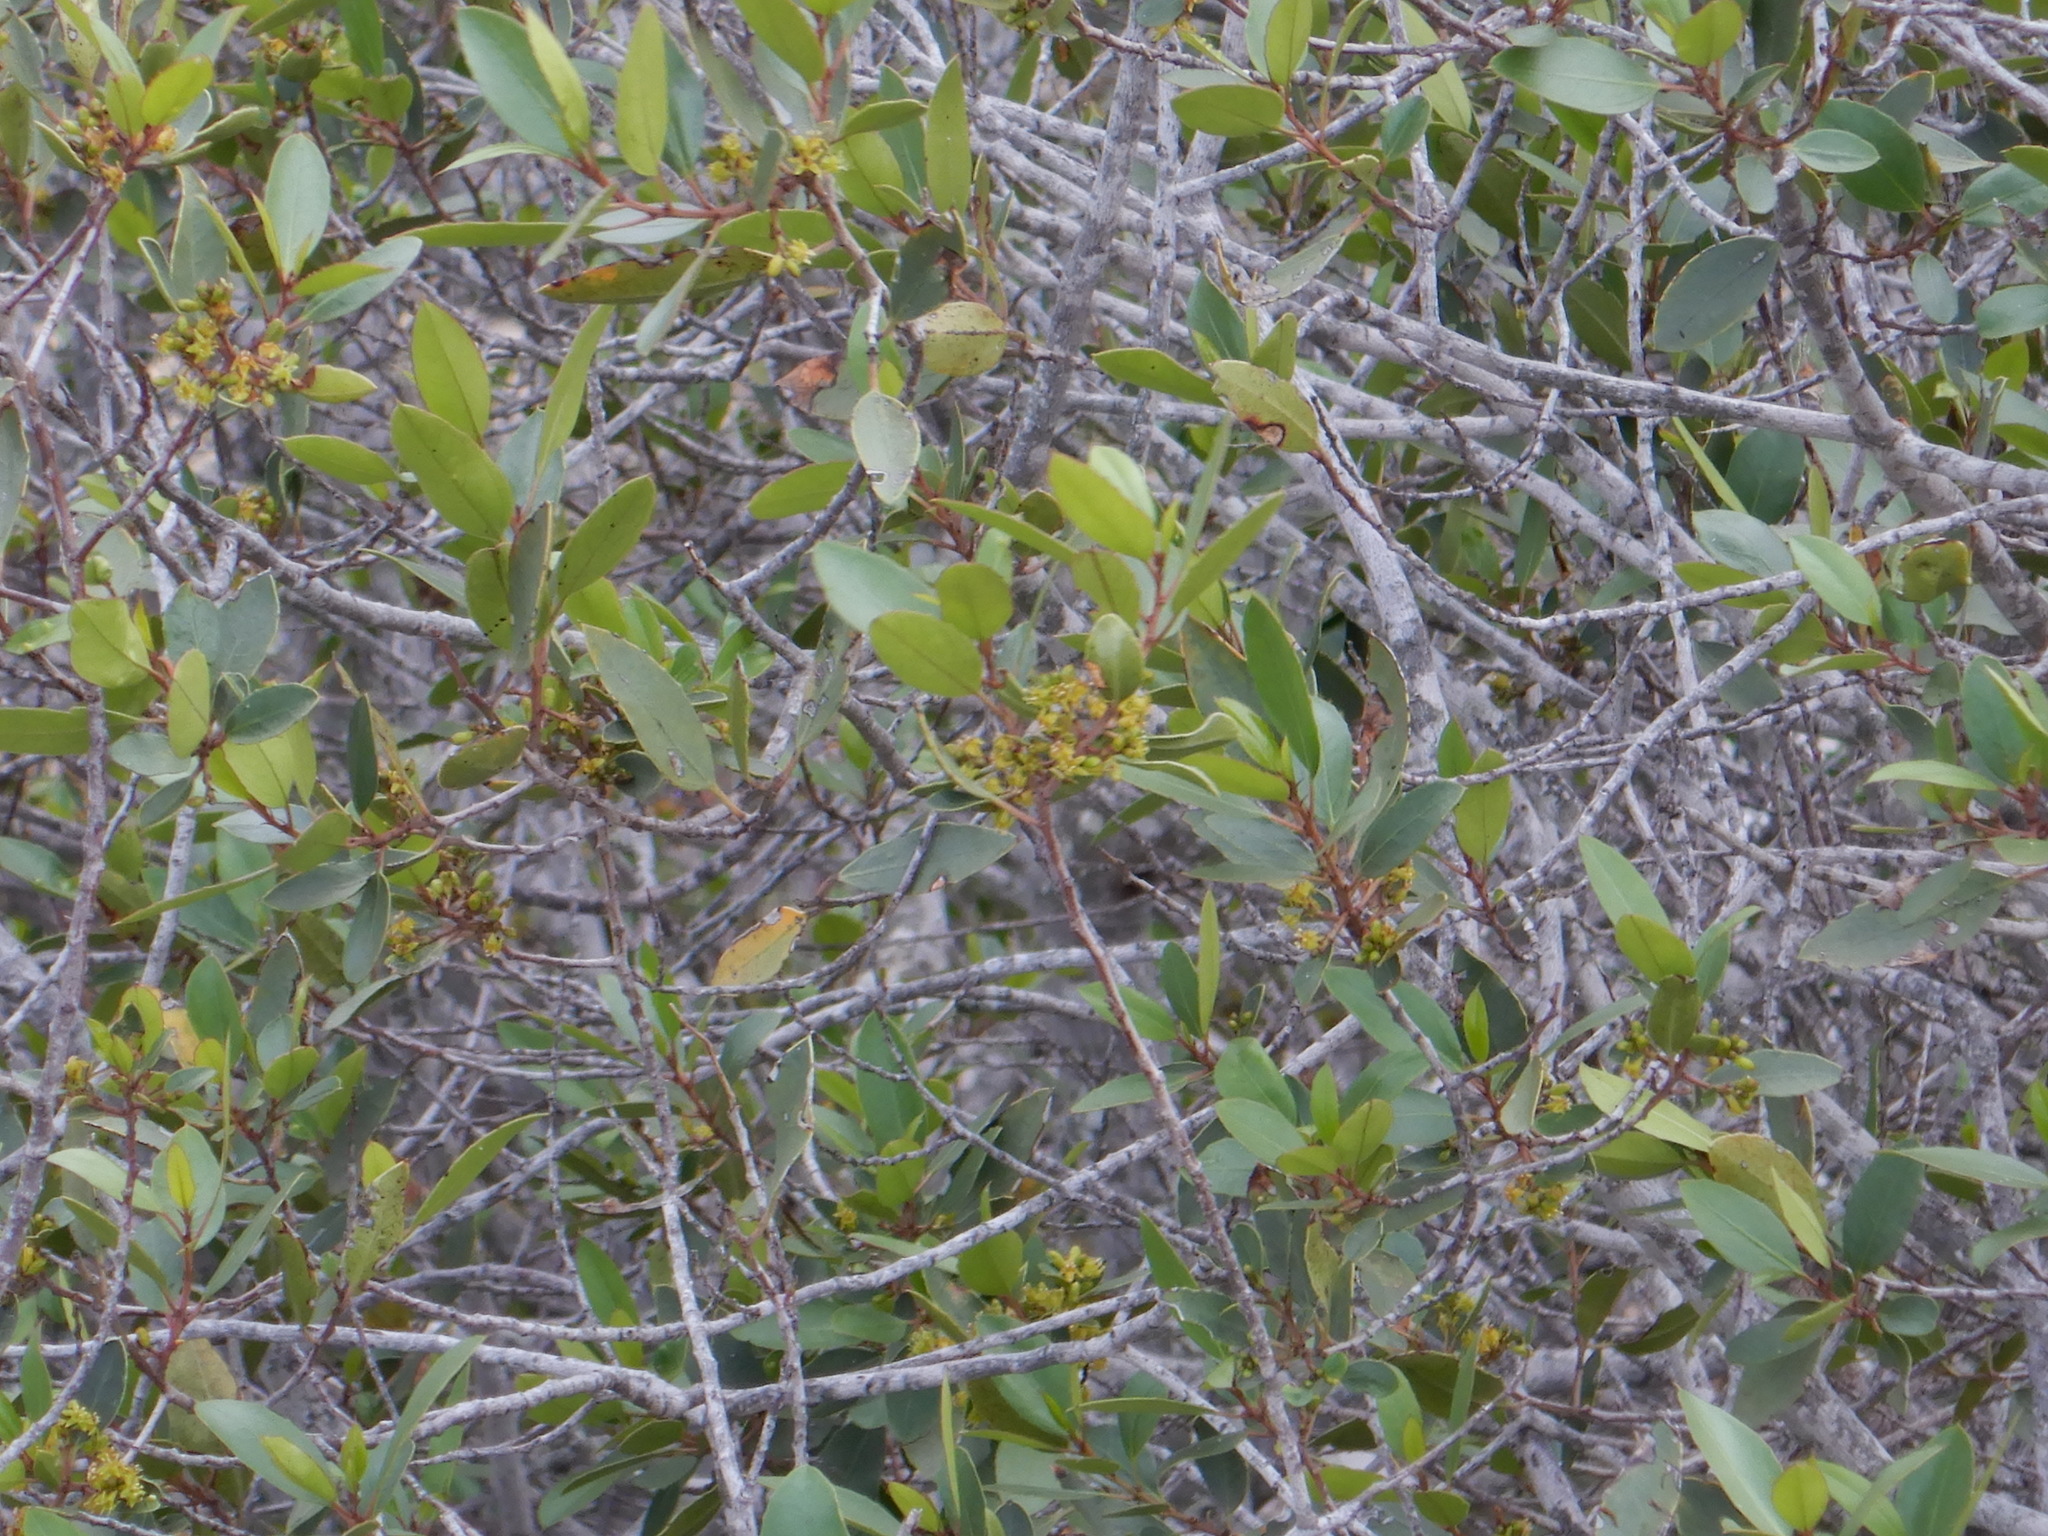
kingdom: Plantae
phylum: Tracheophyta
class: Magnoliopsida
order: Rosales
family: Rhamnaceae
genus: Rhamnus
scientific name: Rhamnus alaternus
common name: Mediterranean buckthorn
